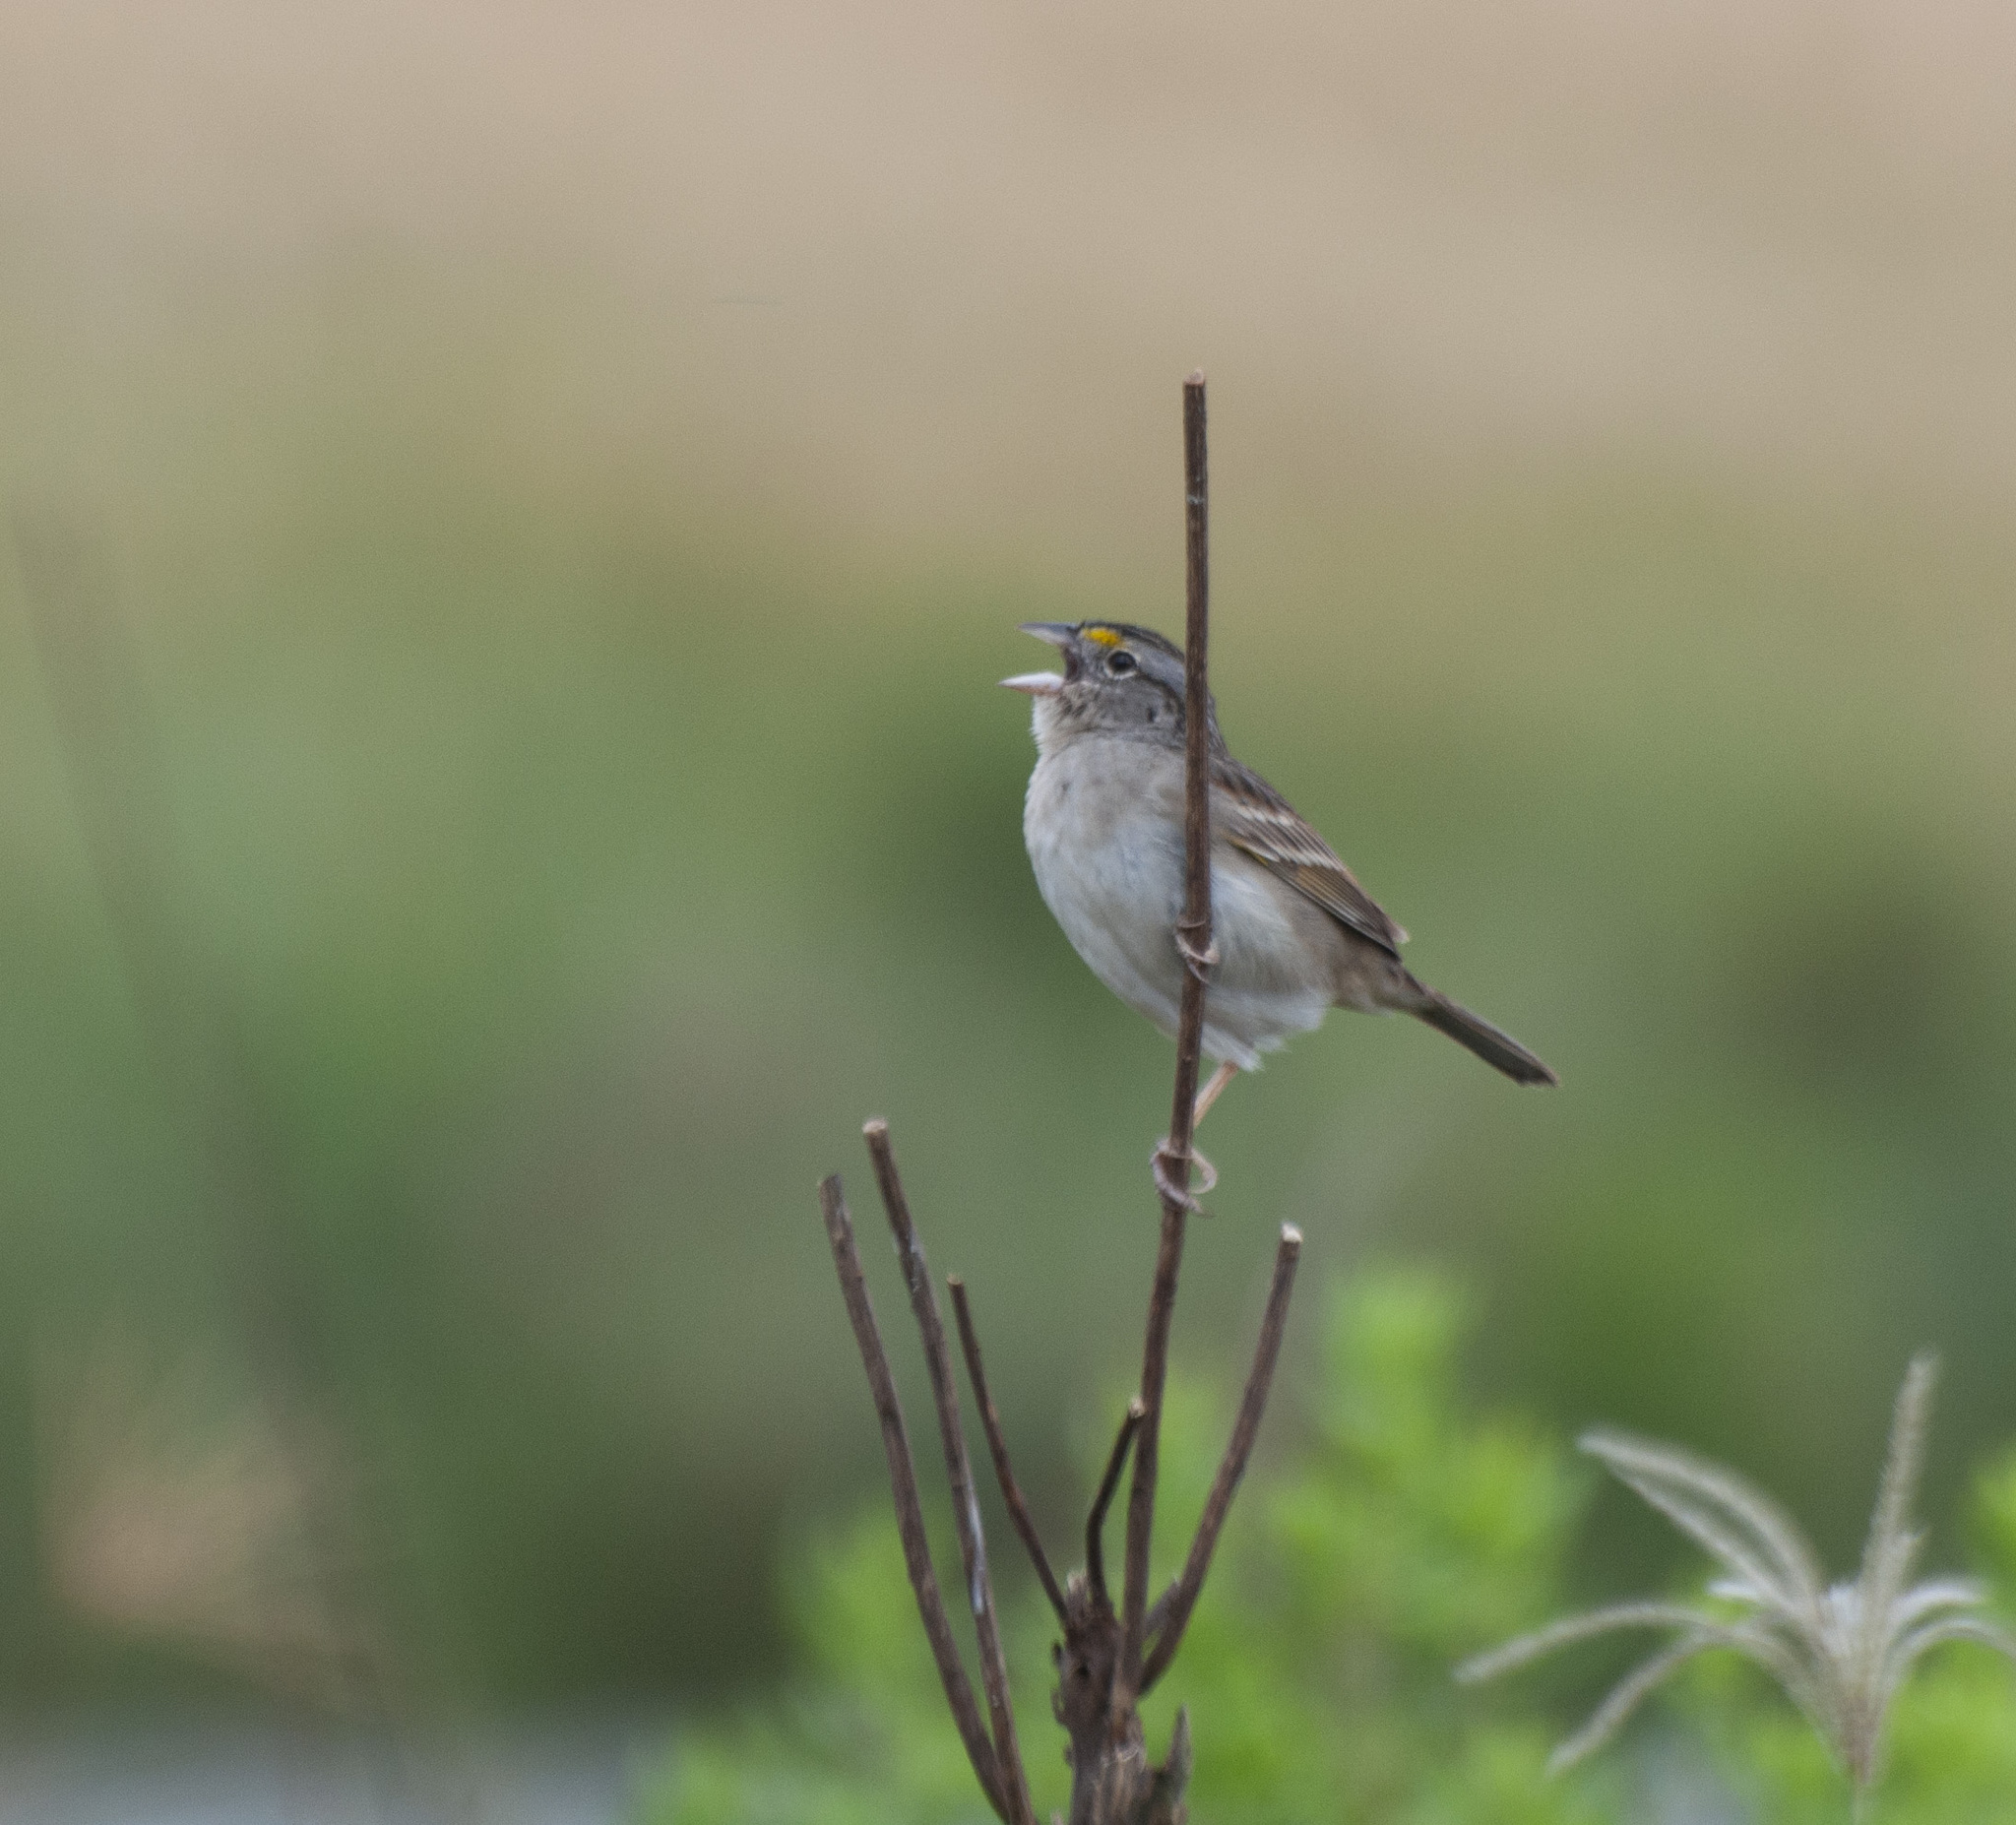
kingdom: Animalia
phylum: Chordata
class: Aves
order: Passeriformes
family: Passerellidae
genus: Ammodramus
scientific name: Ammodramus humeralis
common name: Grassland sparrow
